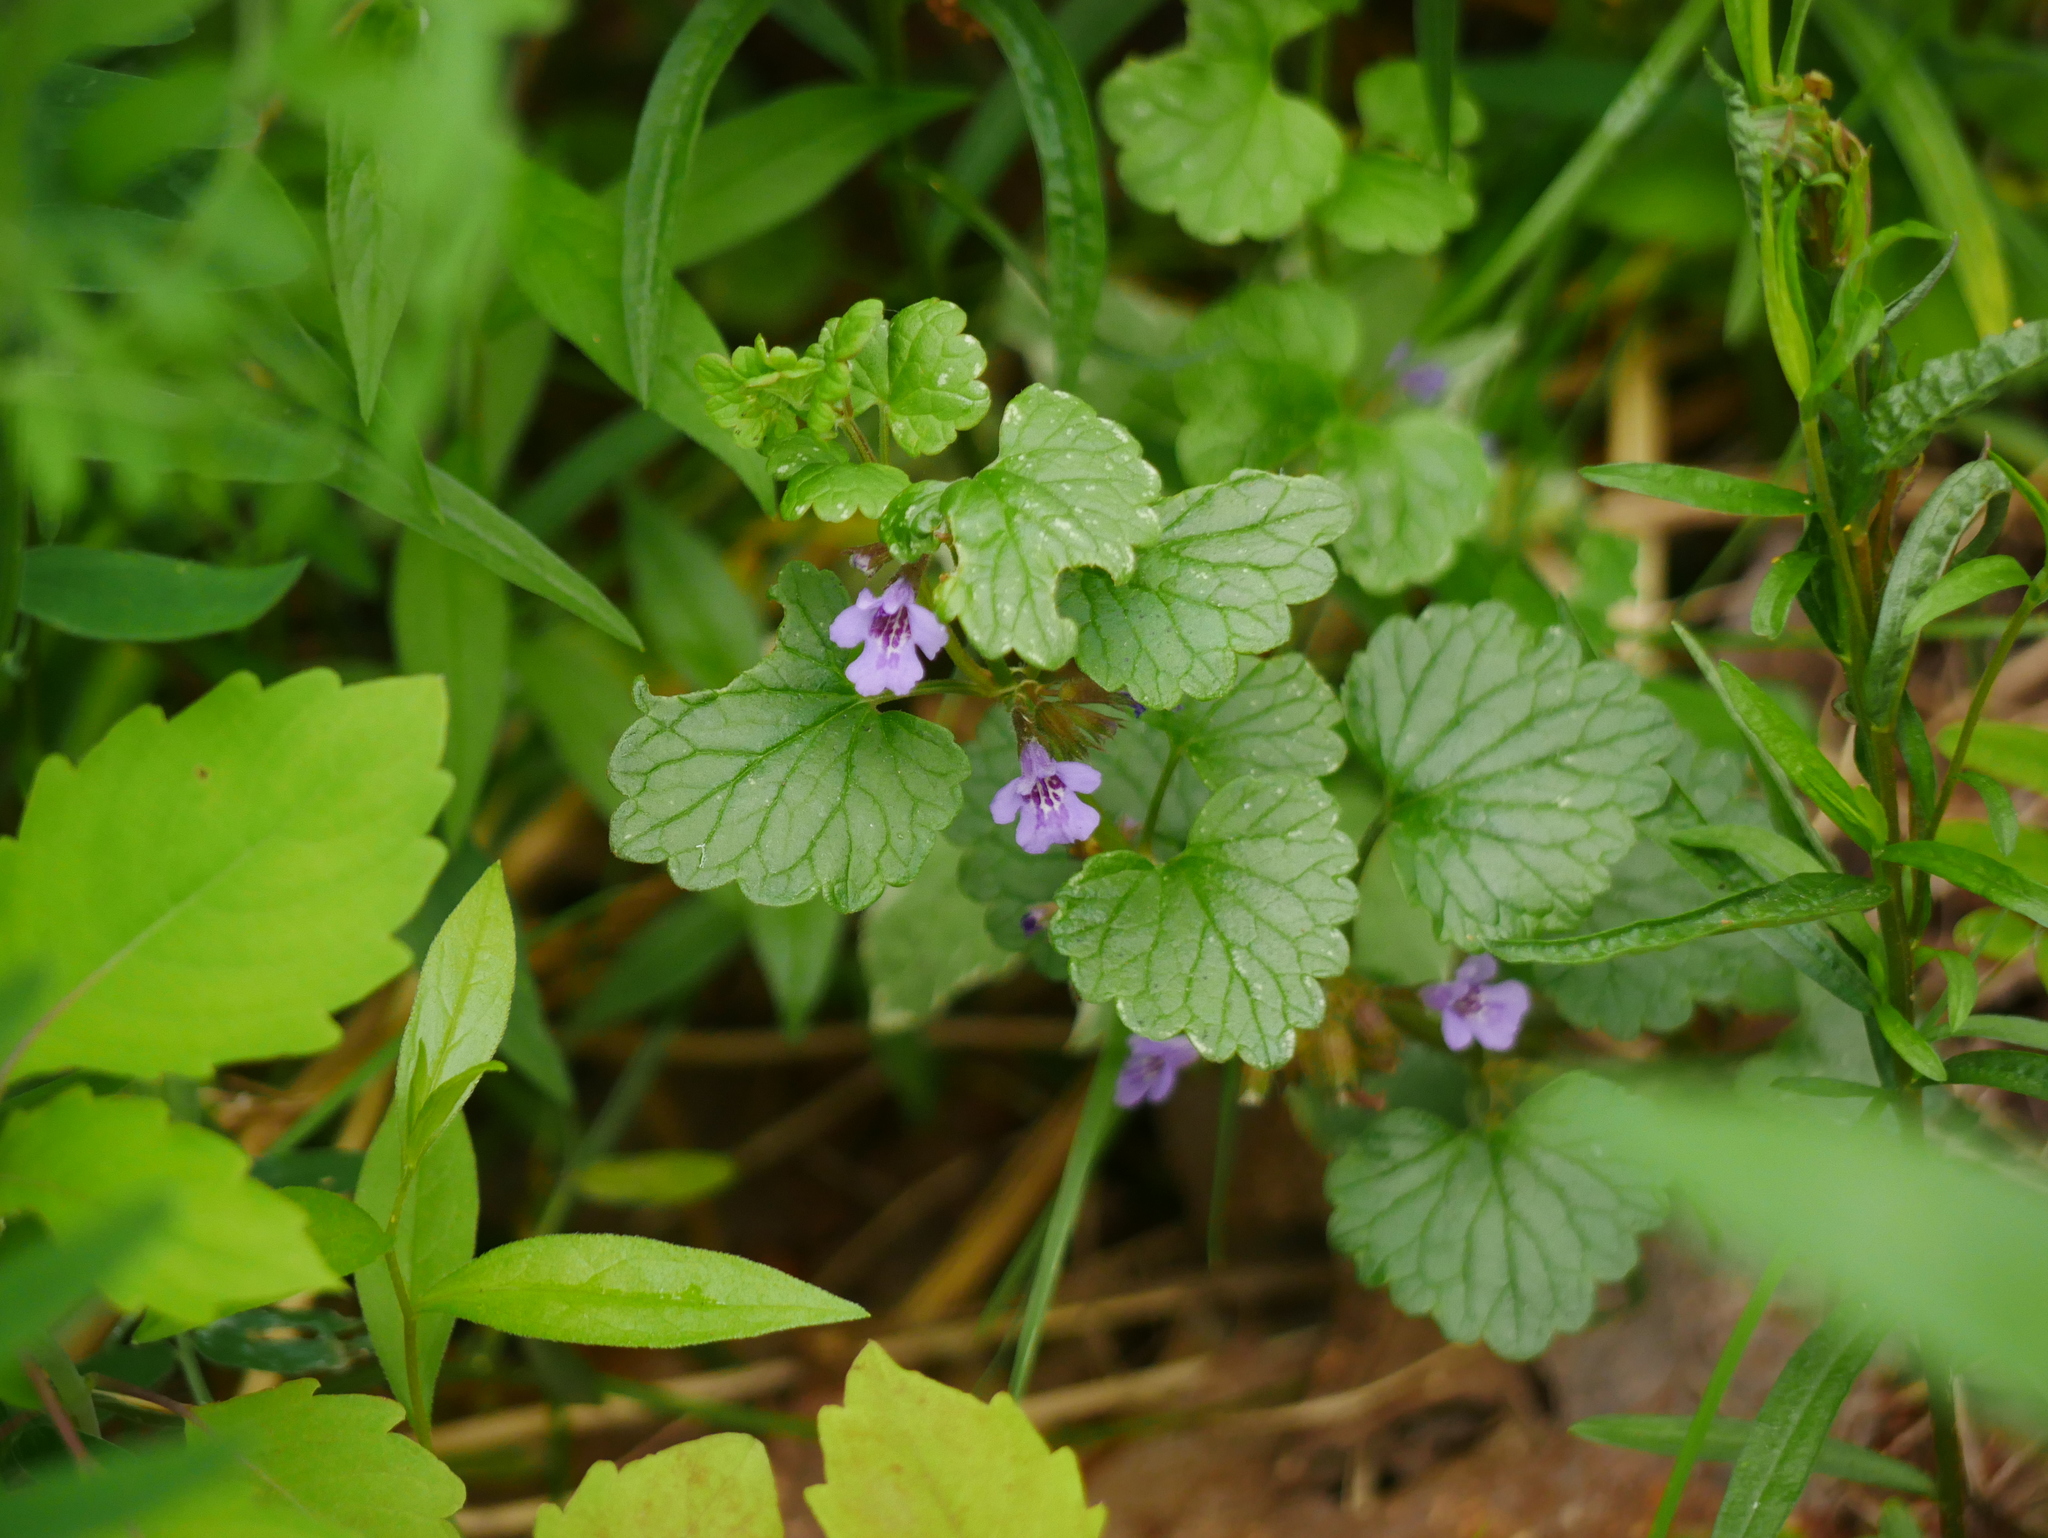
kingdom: Plantae
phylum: Tracheophyta
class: Magnoliopsida
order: Lamiales
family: Lamiaceae
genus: Glechoma
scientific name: Glechoma hederacea
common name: Ground ivy
